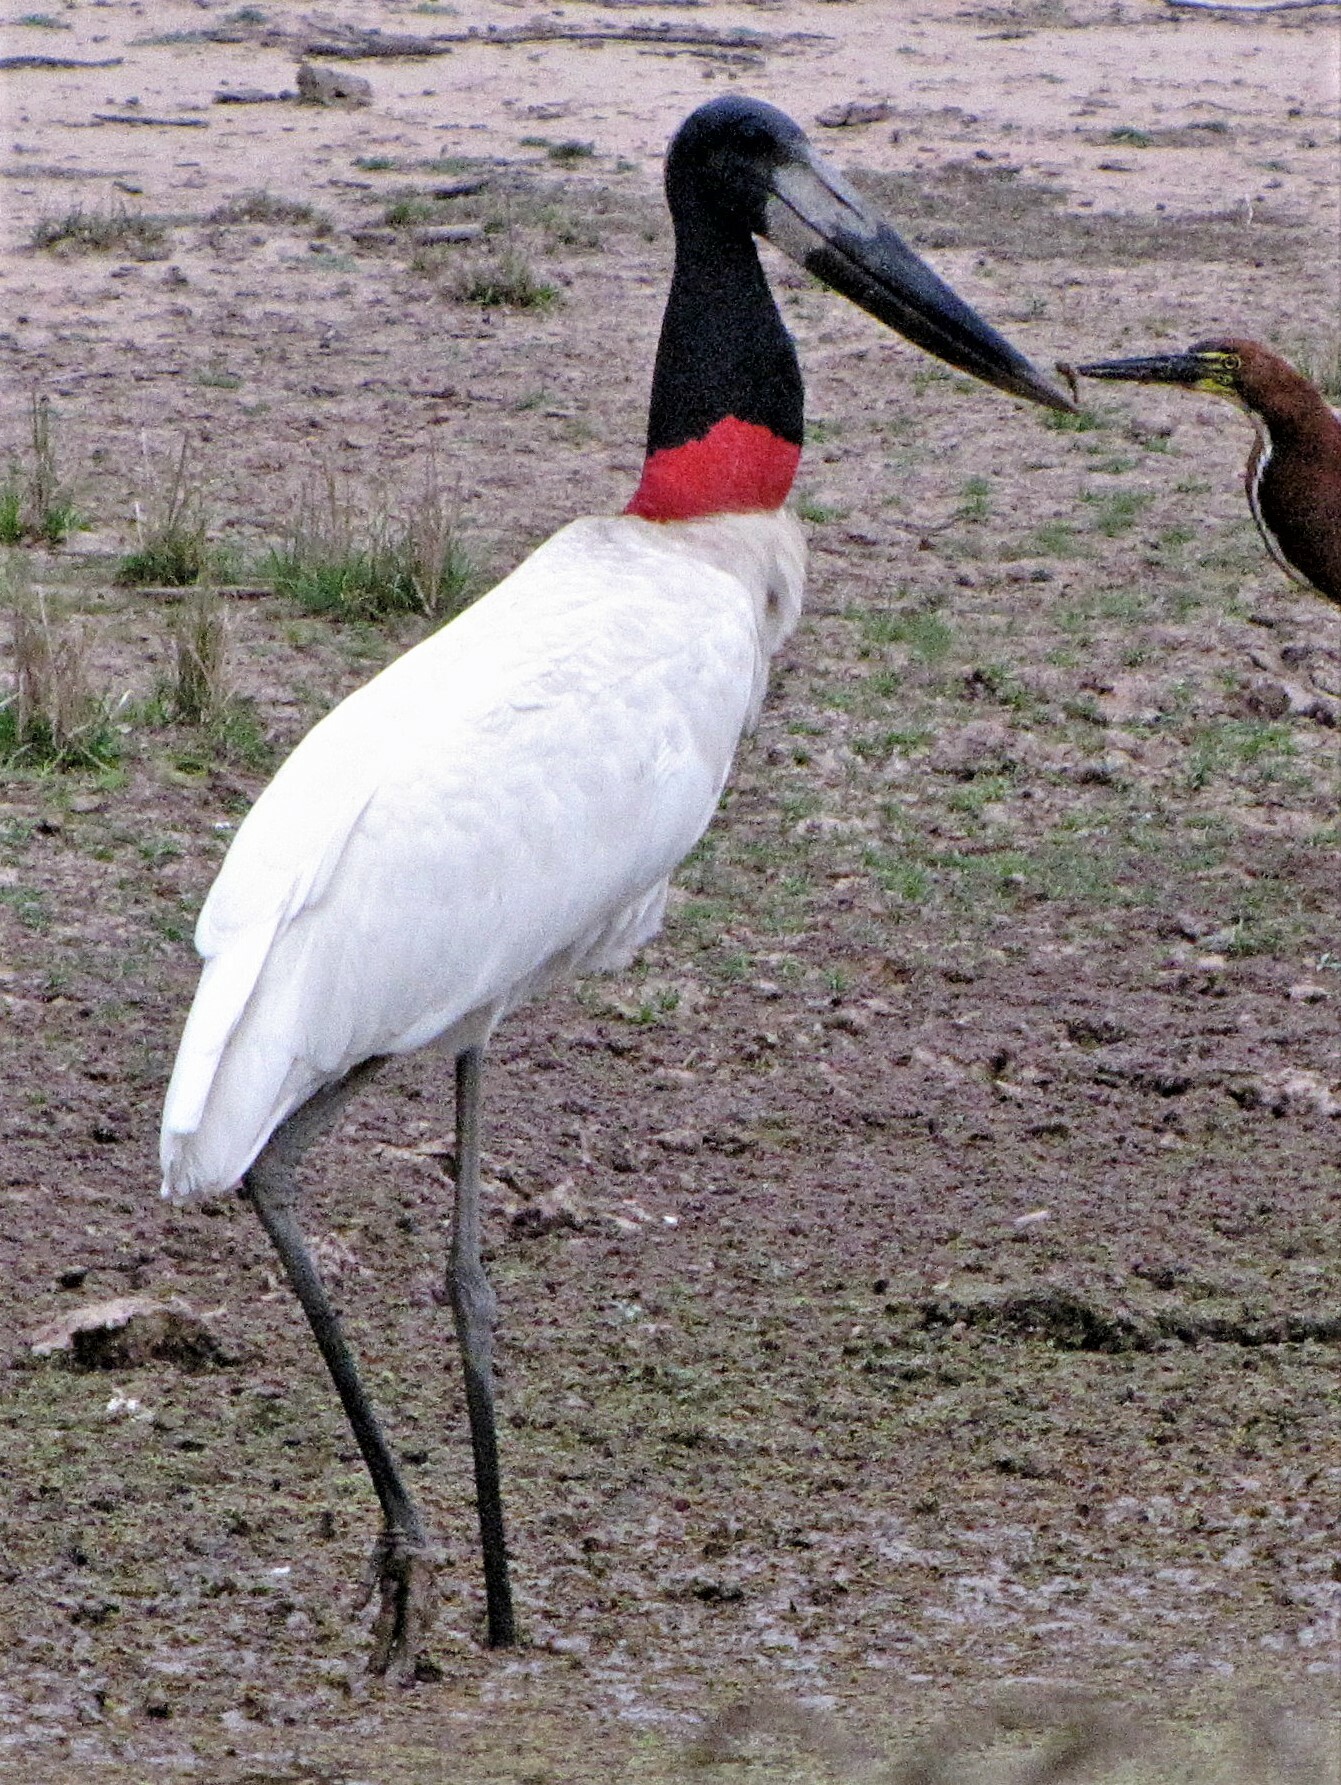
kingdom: Animalia
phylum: Chordata
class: Aves
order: Ciconiiformes
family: Ciconiidae
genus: Jabiru
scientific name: Jabiru mycteria
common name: Jabiru
